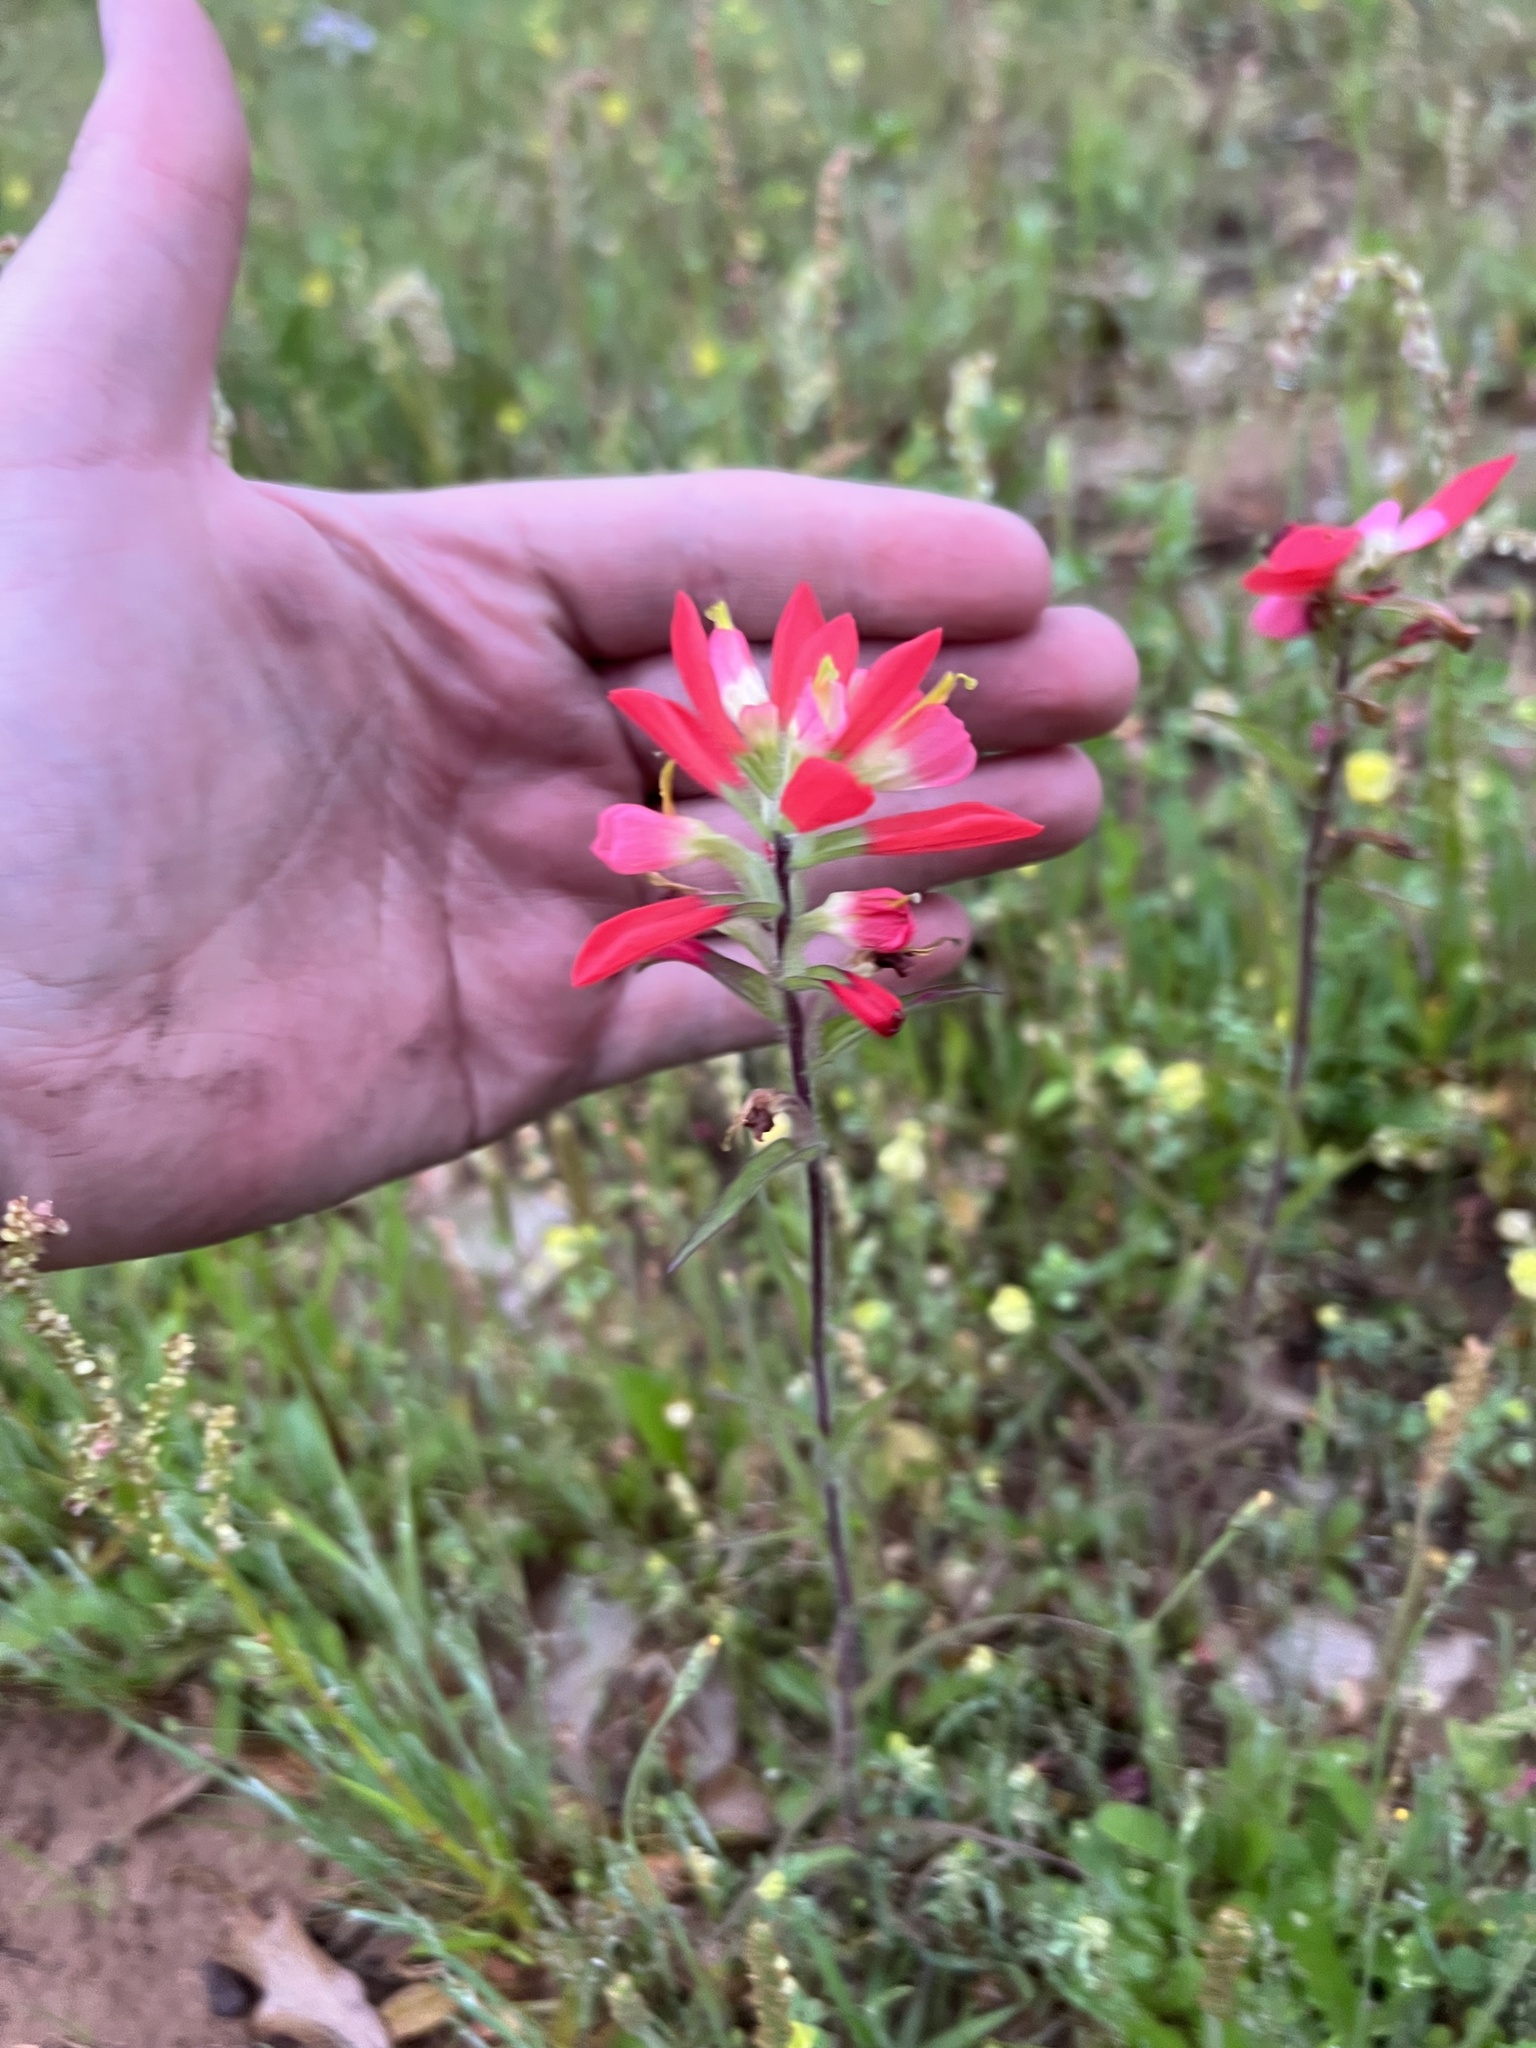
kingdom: Plantae
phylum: Tracheophyta
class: Magnoliopsida
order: Lamiales
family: Orobanchaceae
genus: Castilleja
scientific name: Castilleja indivisa
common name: Texas paintbrush
